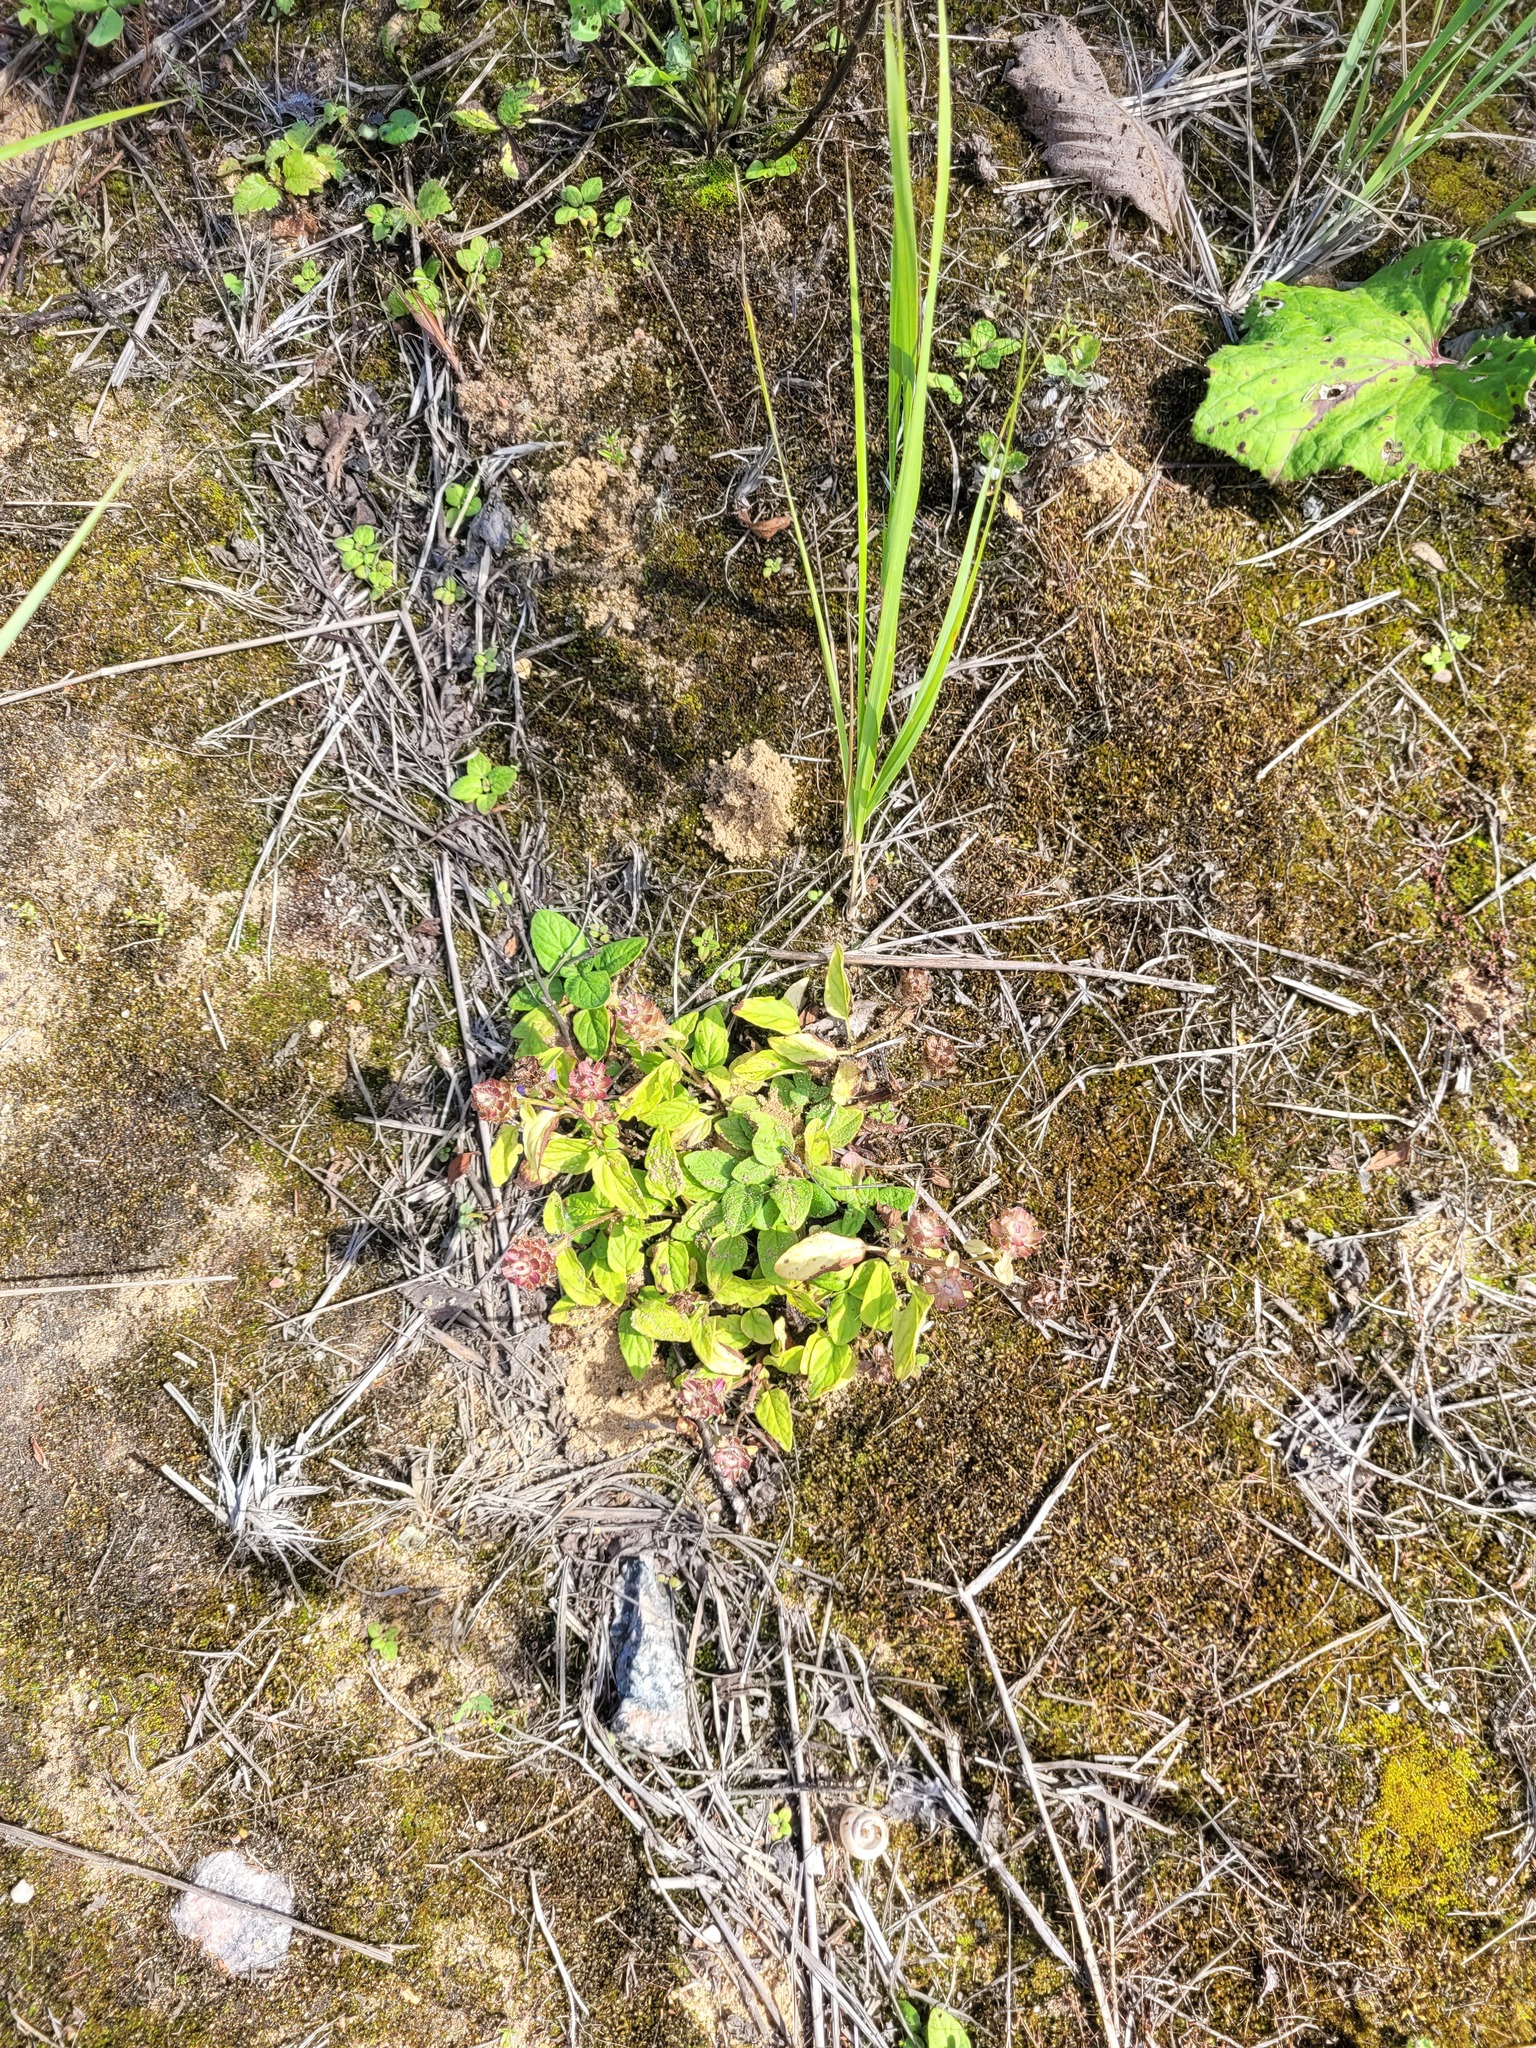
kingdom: Plantae
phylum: Tracheophyta
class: Magnoliopsida
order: Lamiales
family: Lamiaceae
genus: Prunella
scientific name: Prunella vulgaris
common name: Heal-all
